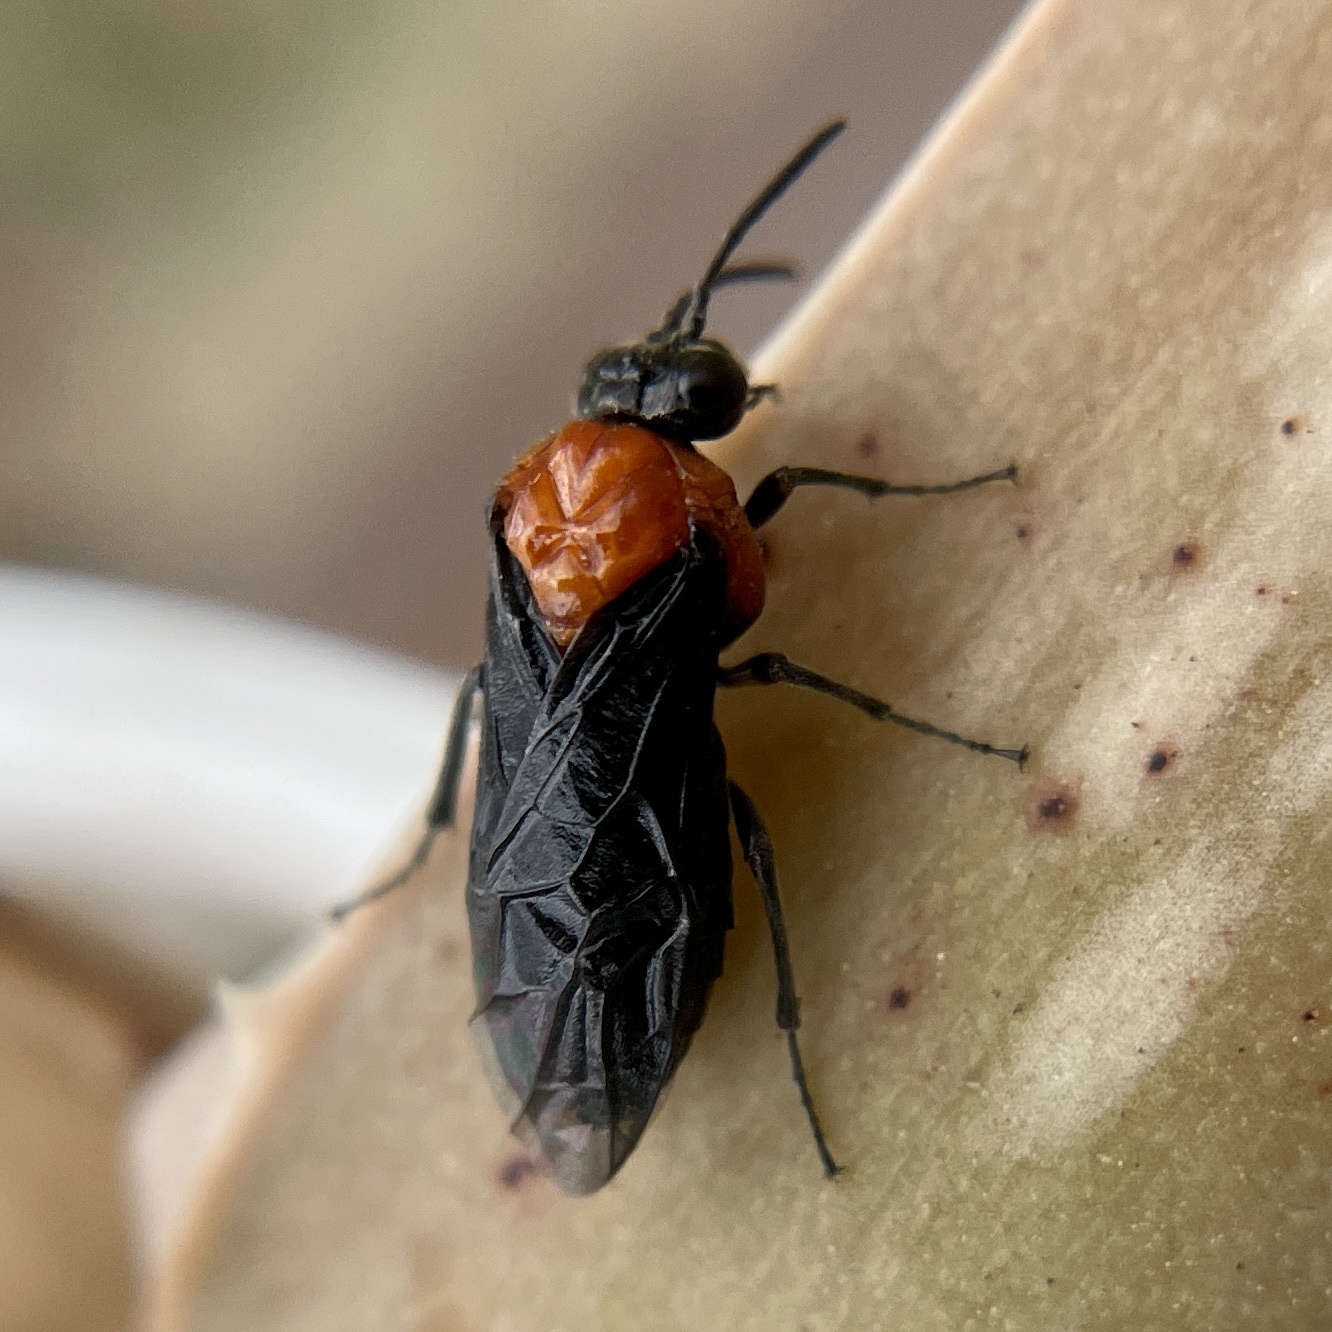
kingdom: Animalia
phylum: Arthropoda
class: Insecta
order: Hymenoptera
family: Tenthredinidae
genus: Tethida
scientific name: Tethida barda
